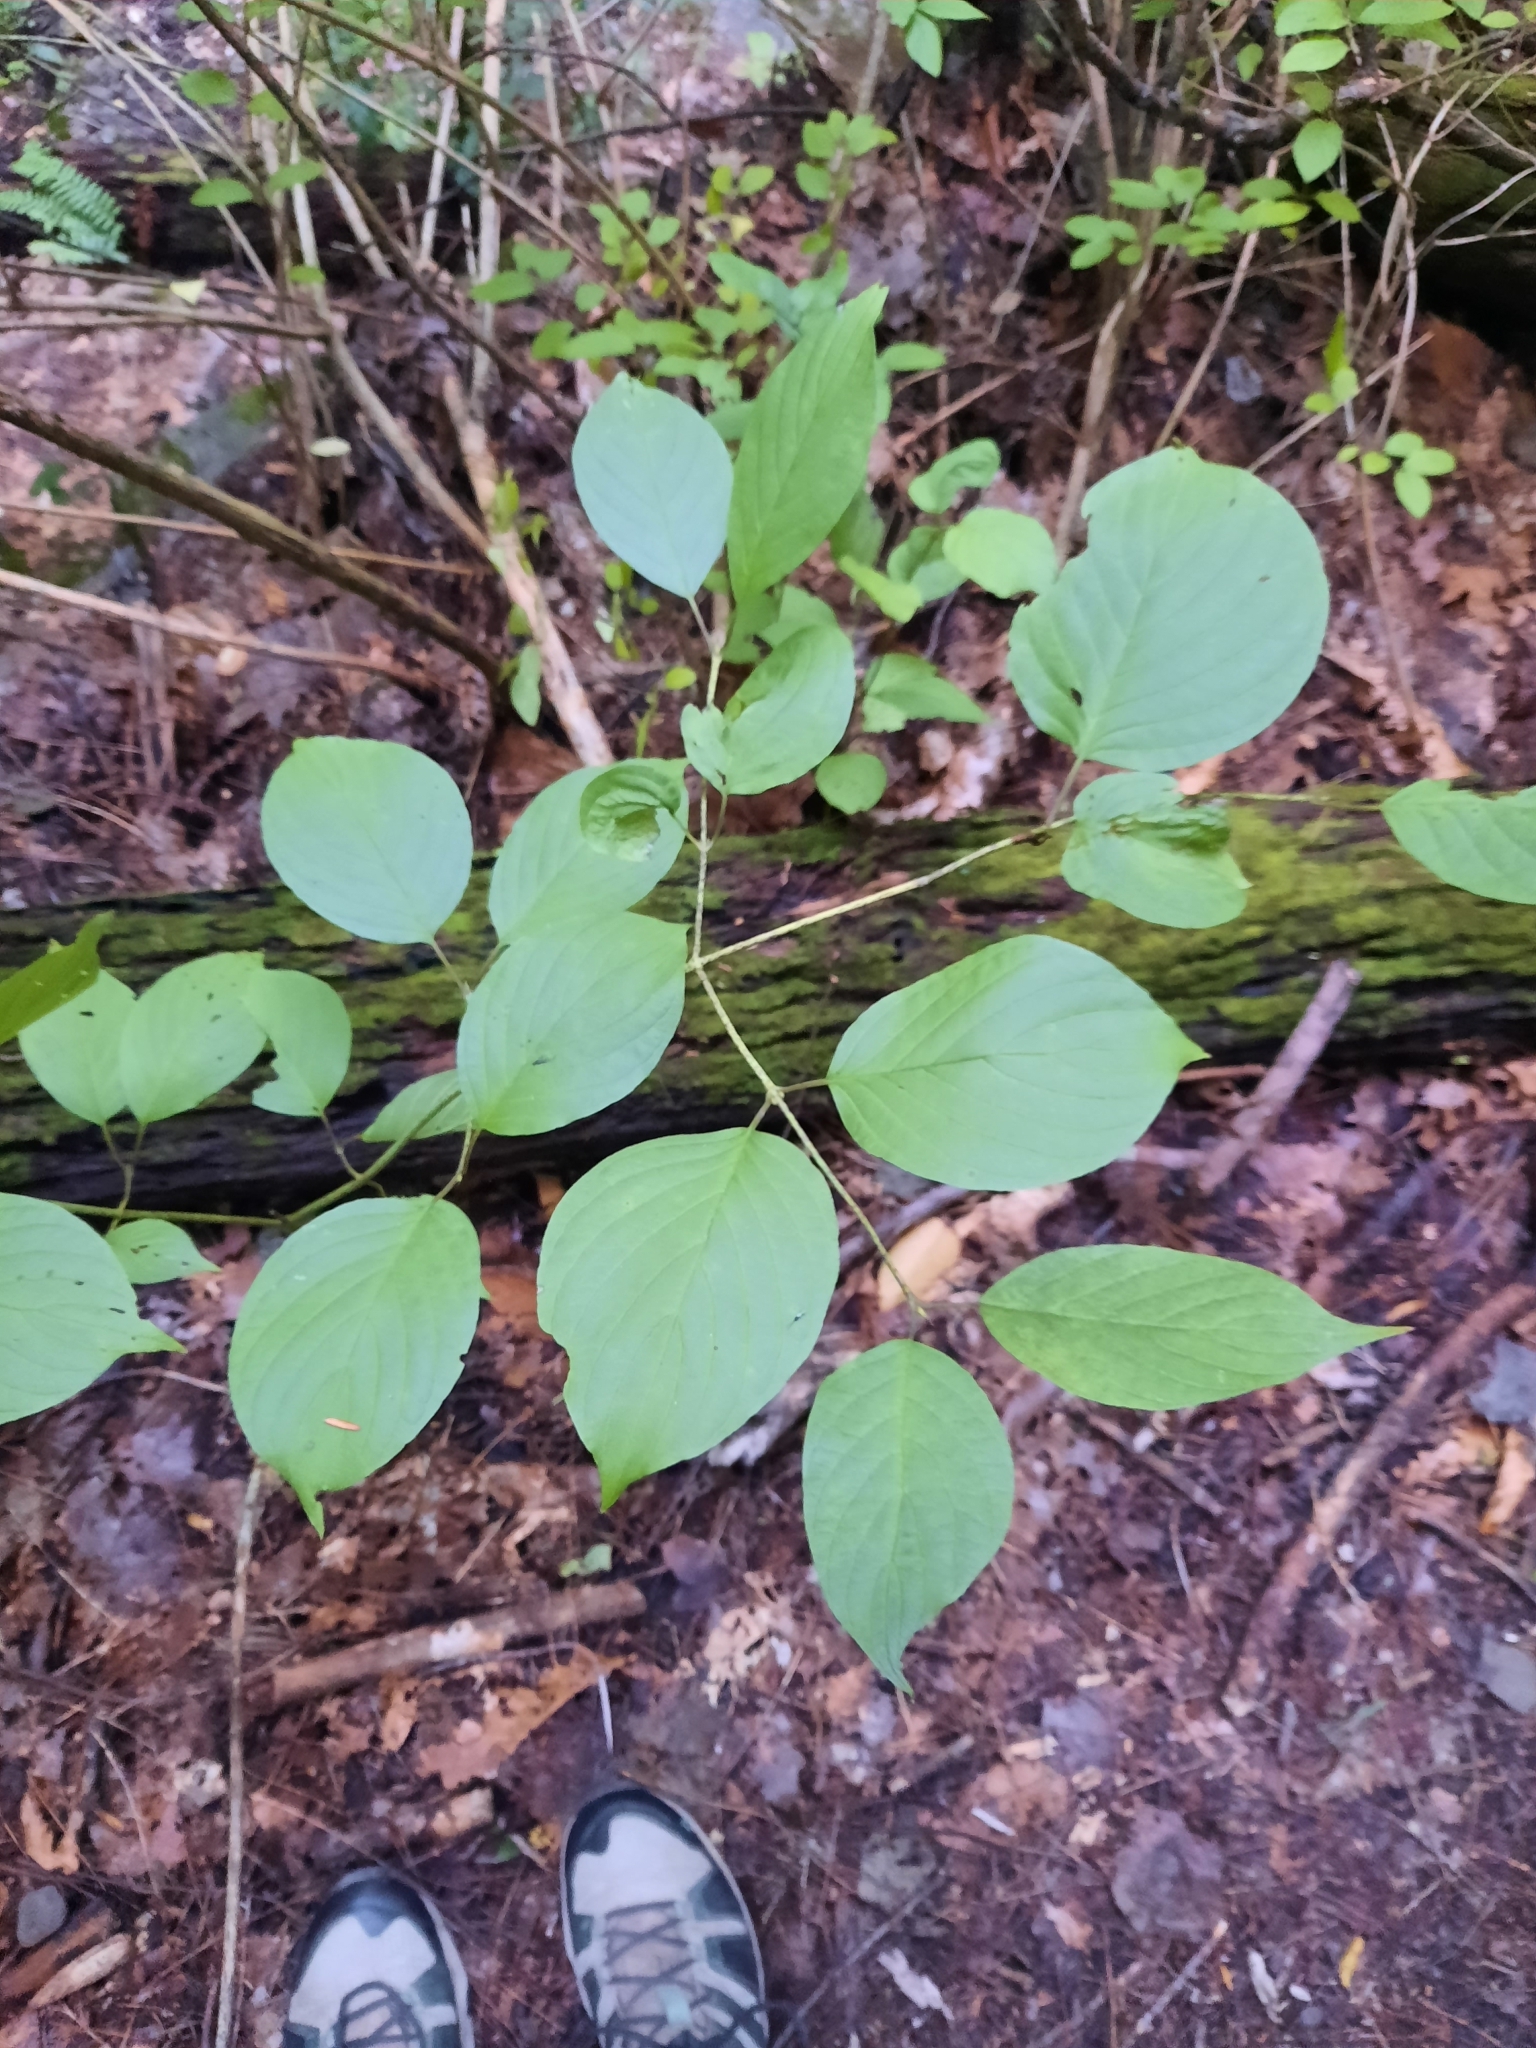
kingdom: Plantae
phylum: Tracheophyta
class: Magnoliopsida
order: Cornales
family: Cornaceae
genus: Cornus
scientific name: Cornus rugosa
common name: Round-leaf dogwood
